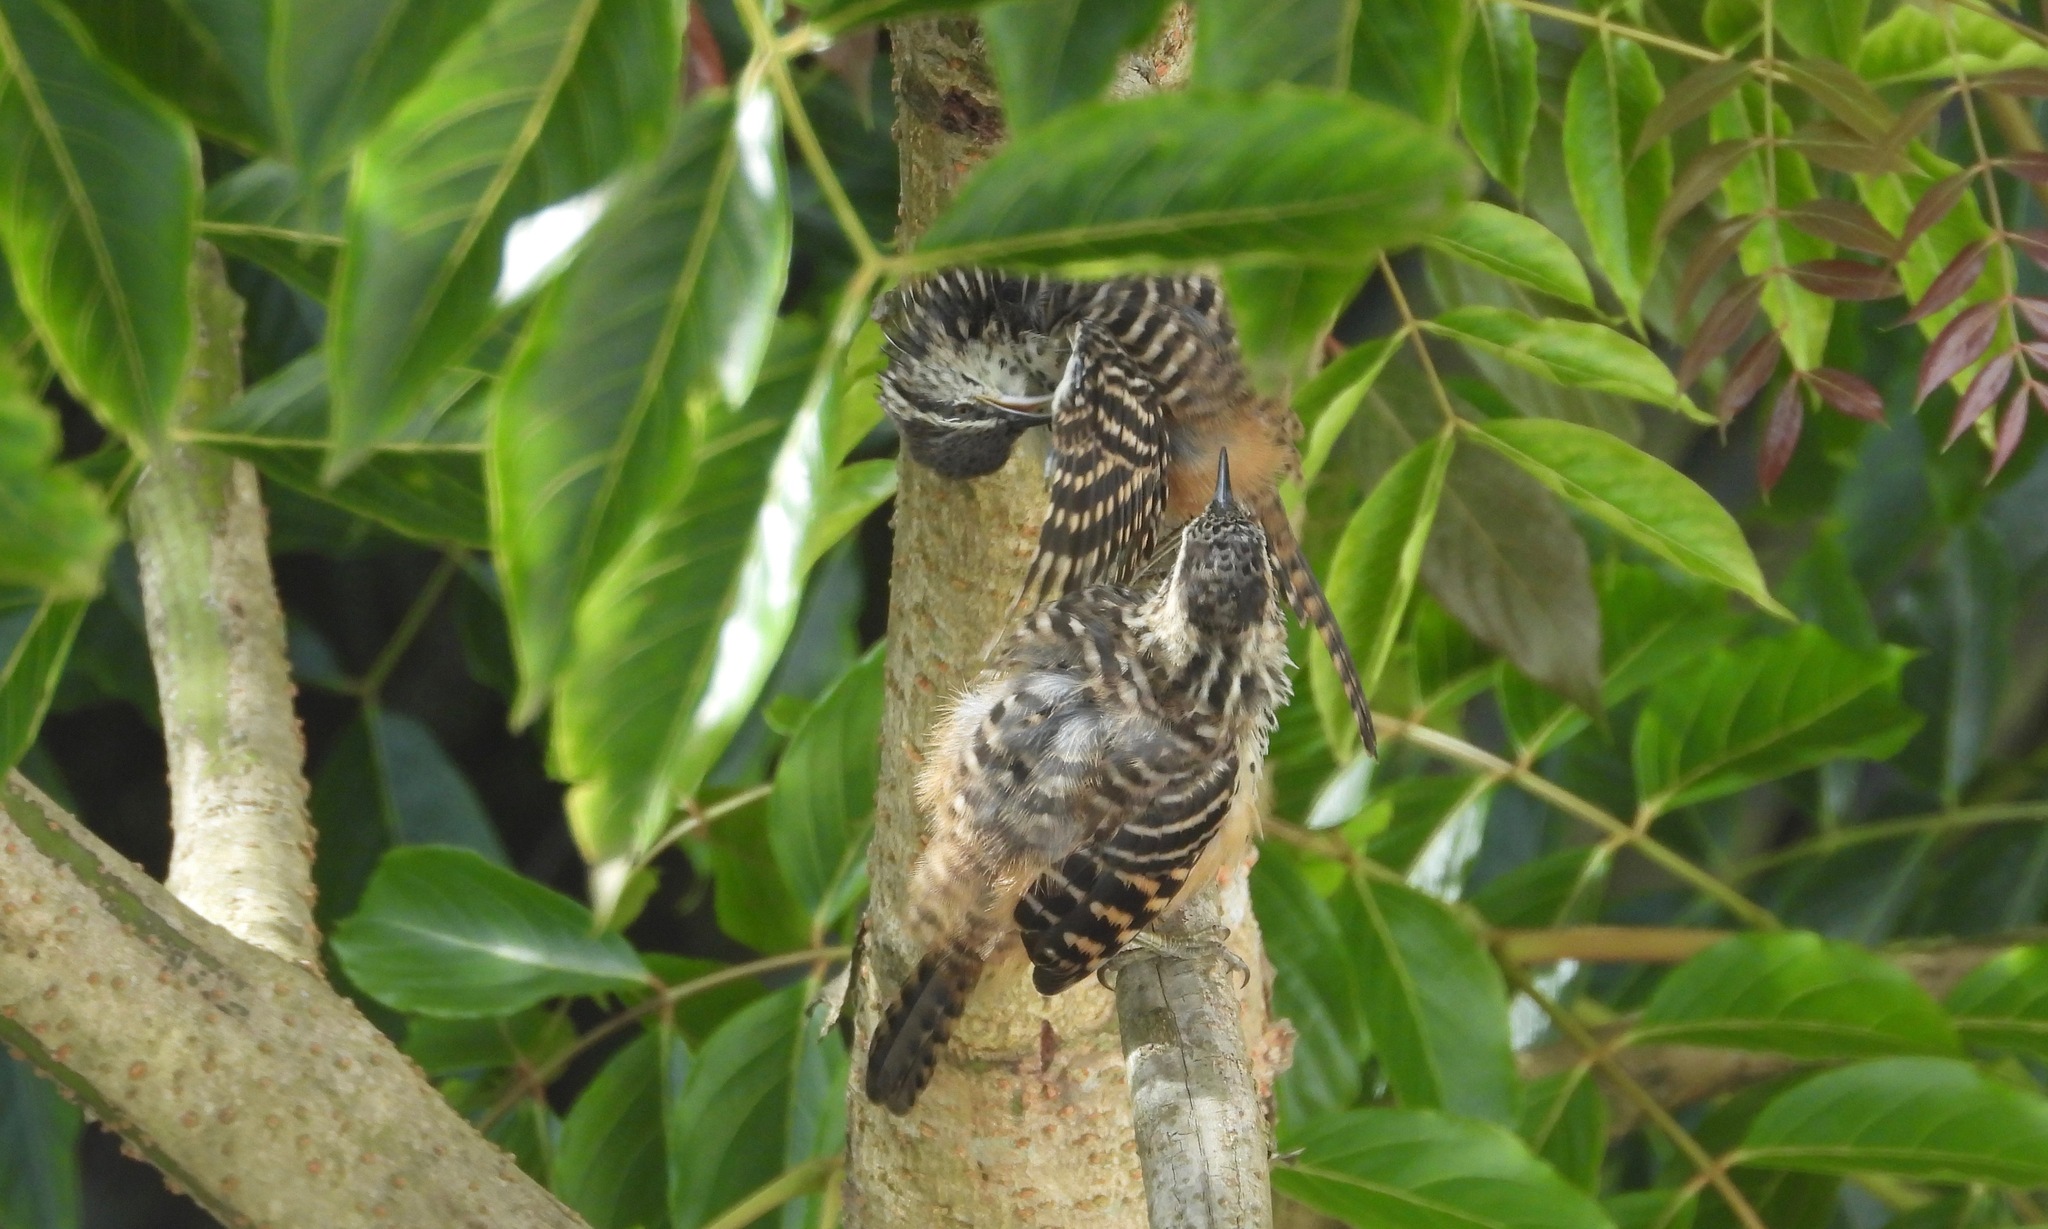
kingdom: Animalia
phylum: Chordata
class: Aves
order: Passeriformes
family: Troglodytidae
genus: Campylorhynchus
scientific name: Campylorhynchus zonatus
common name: Band-backed wren
